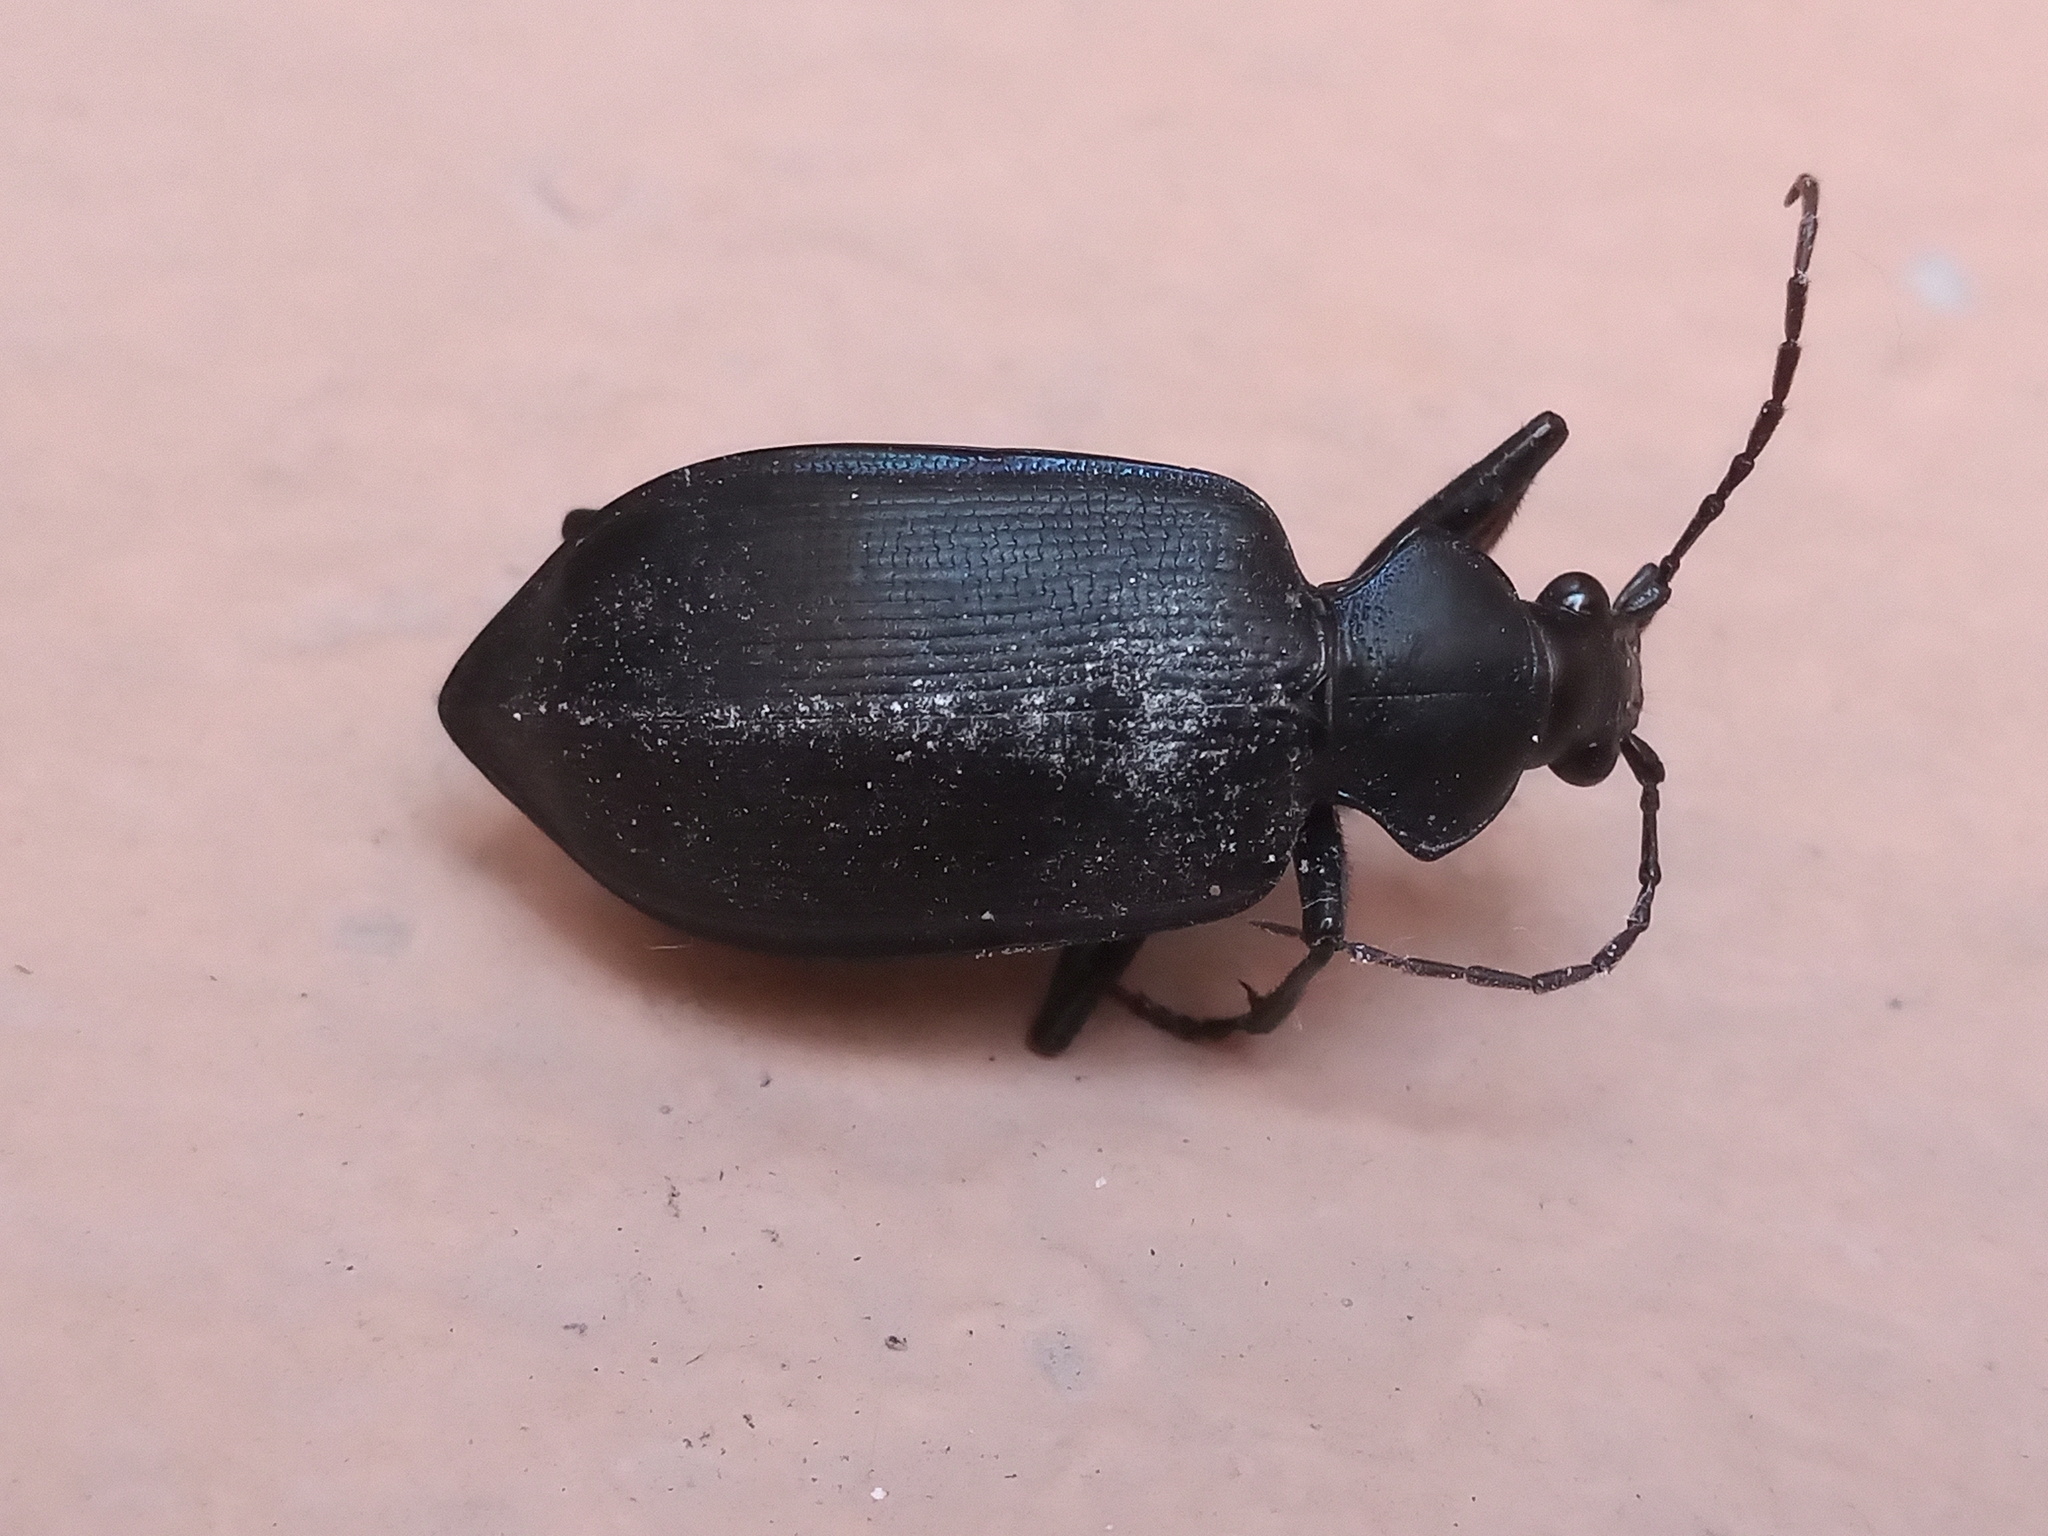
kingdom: Animalia
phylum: Arthropoda
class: Insecta
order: Coleoptera
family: Carabidae
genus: Calosoma
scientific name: Calosoma angulatum
